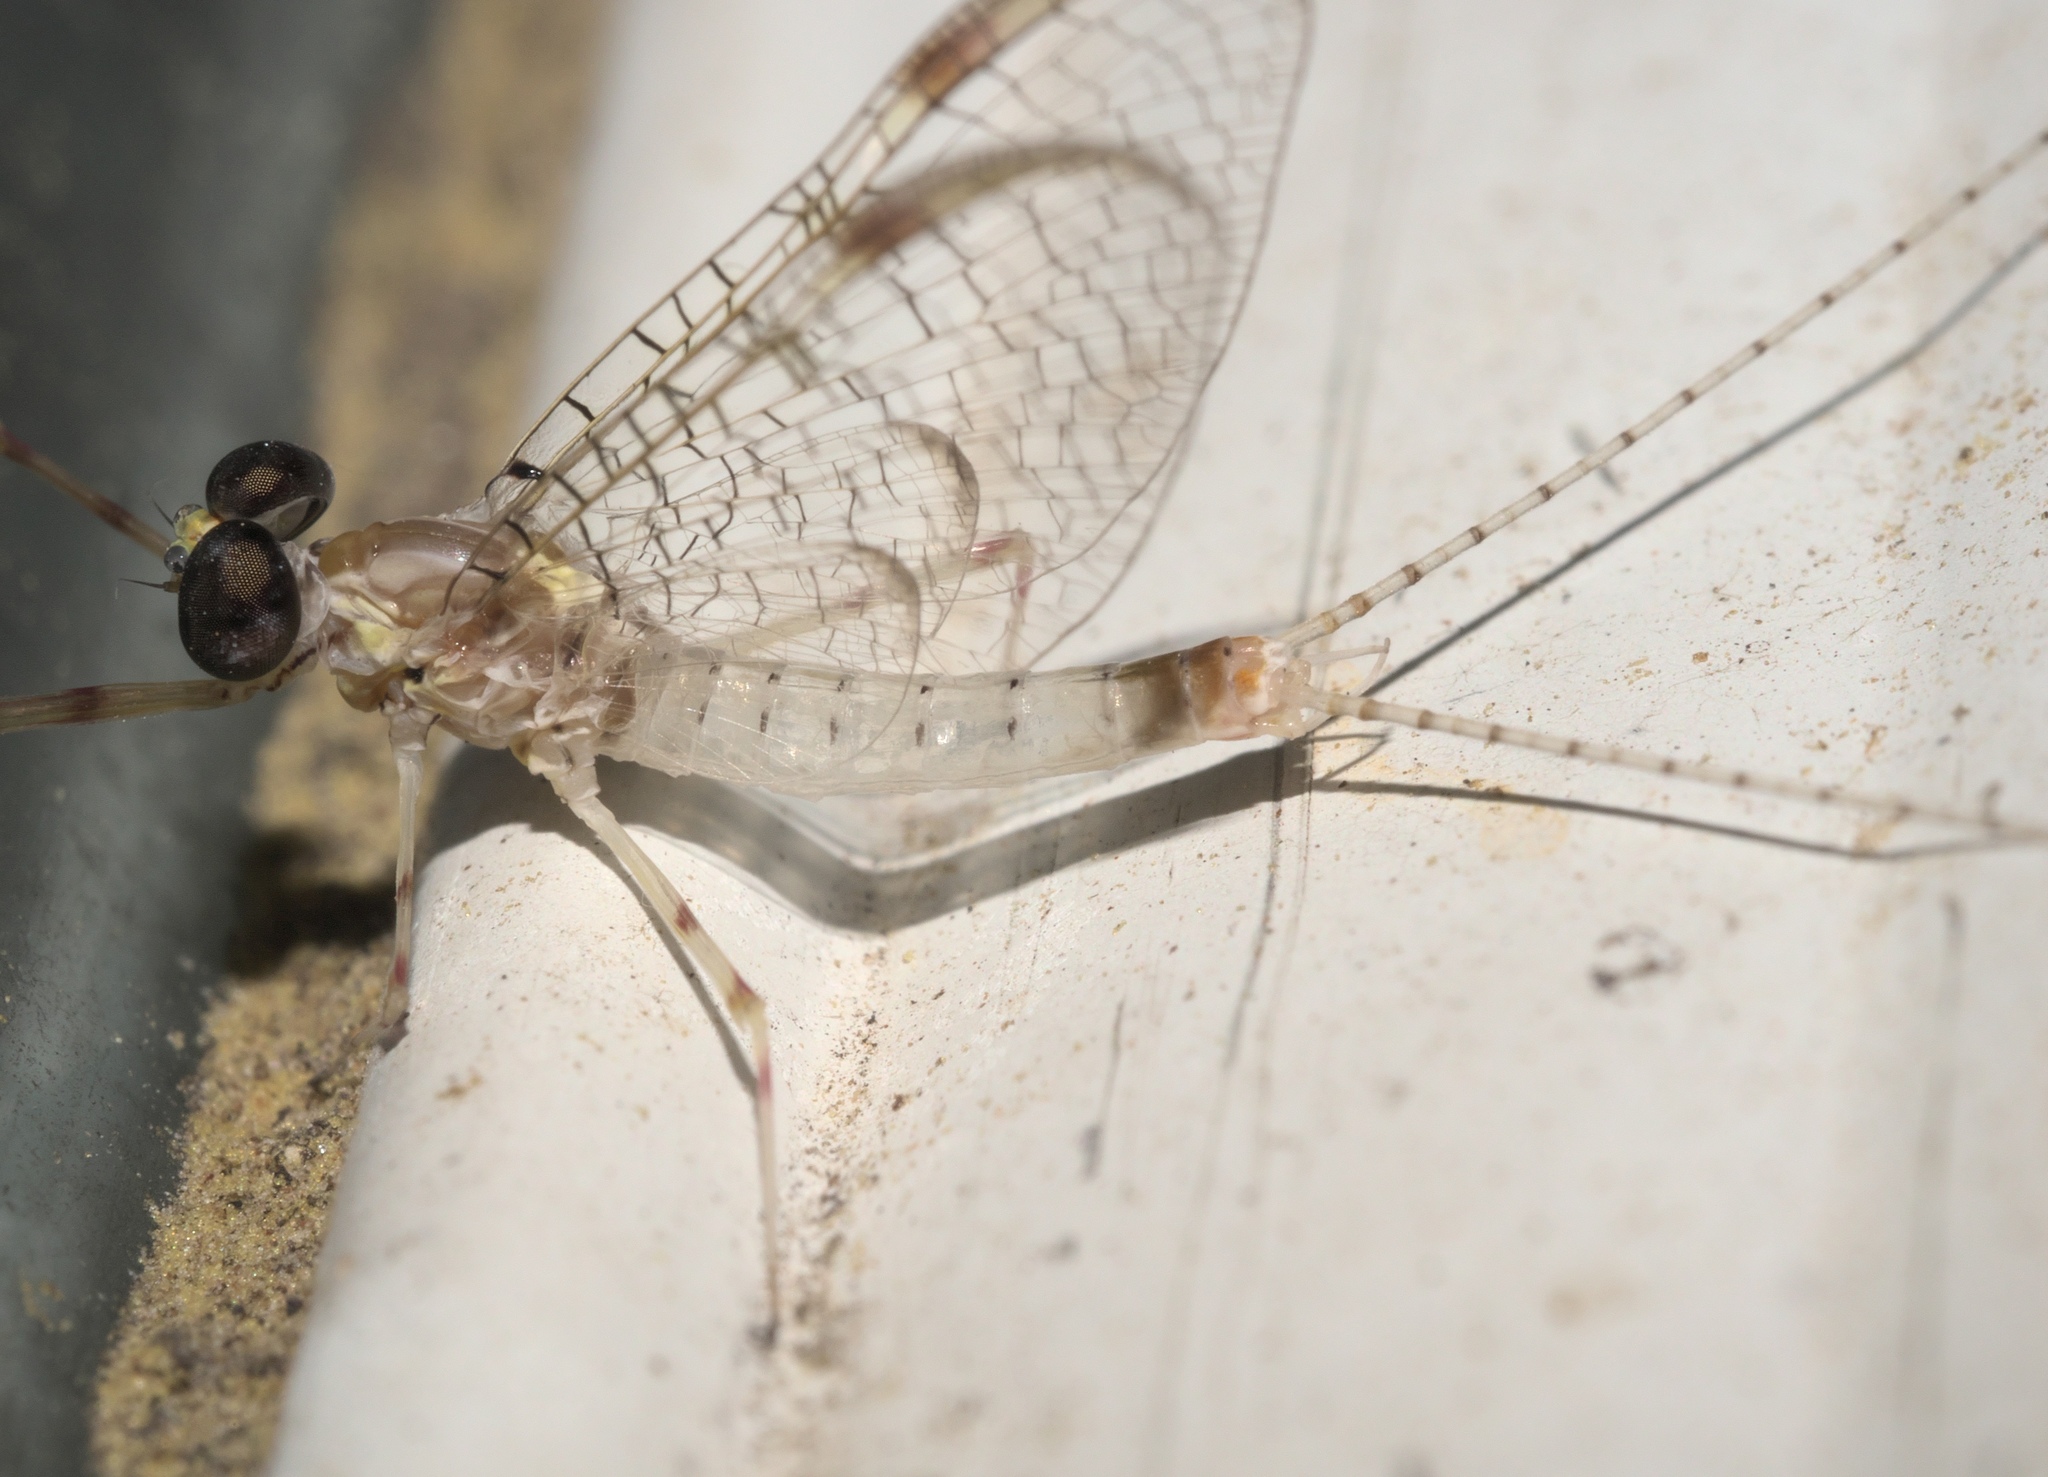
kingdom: Animalia
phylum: Arthropoda
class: Insecta
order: Ephemeroptera
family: Heptageniidae
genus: Maccaffertium
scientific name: Maccaffertium terminatum
